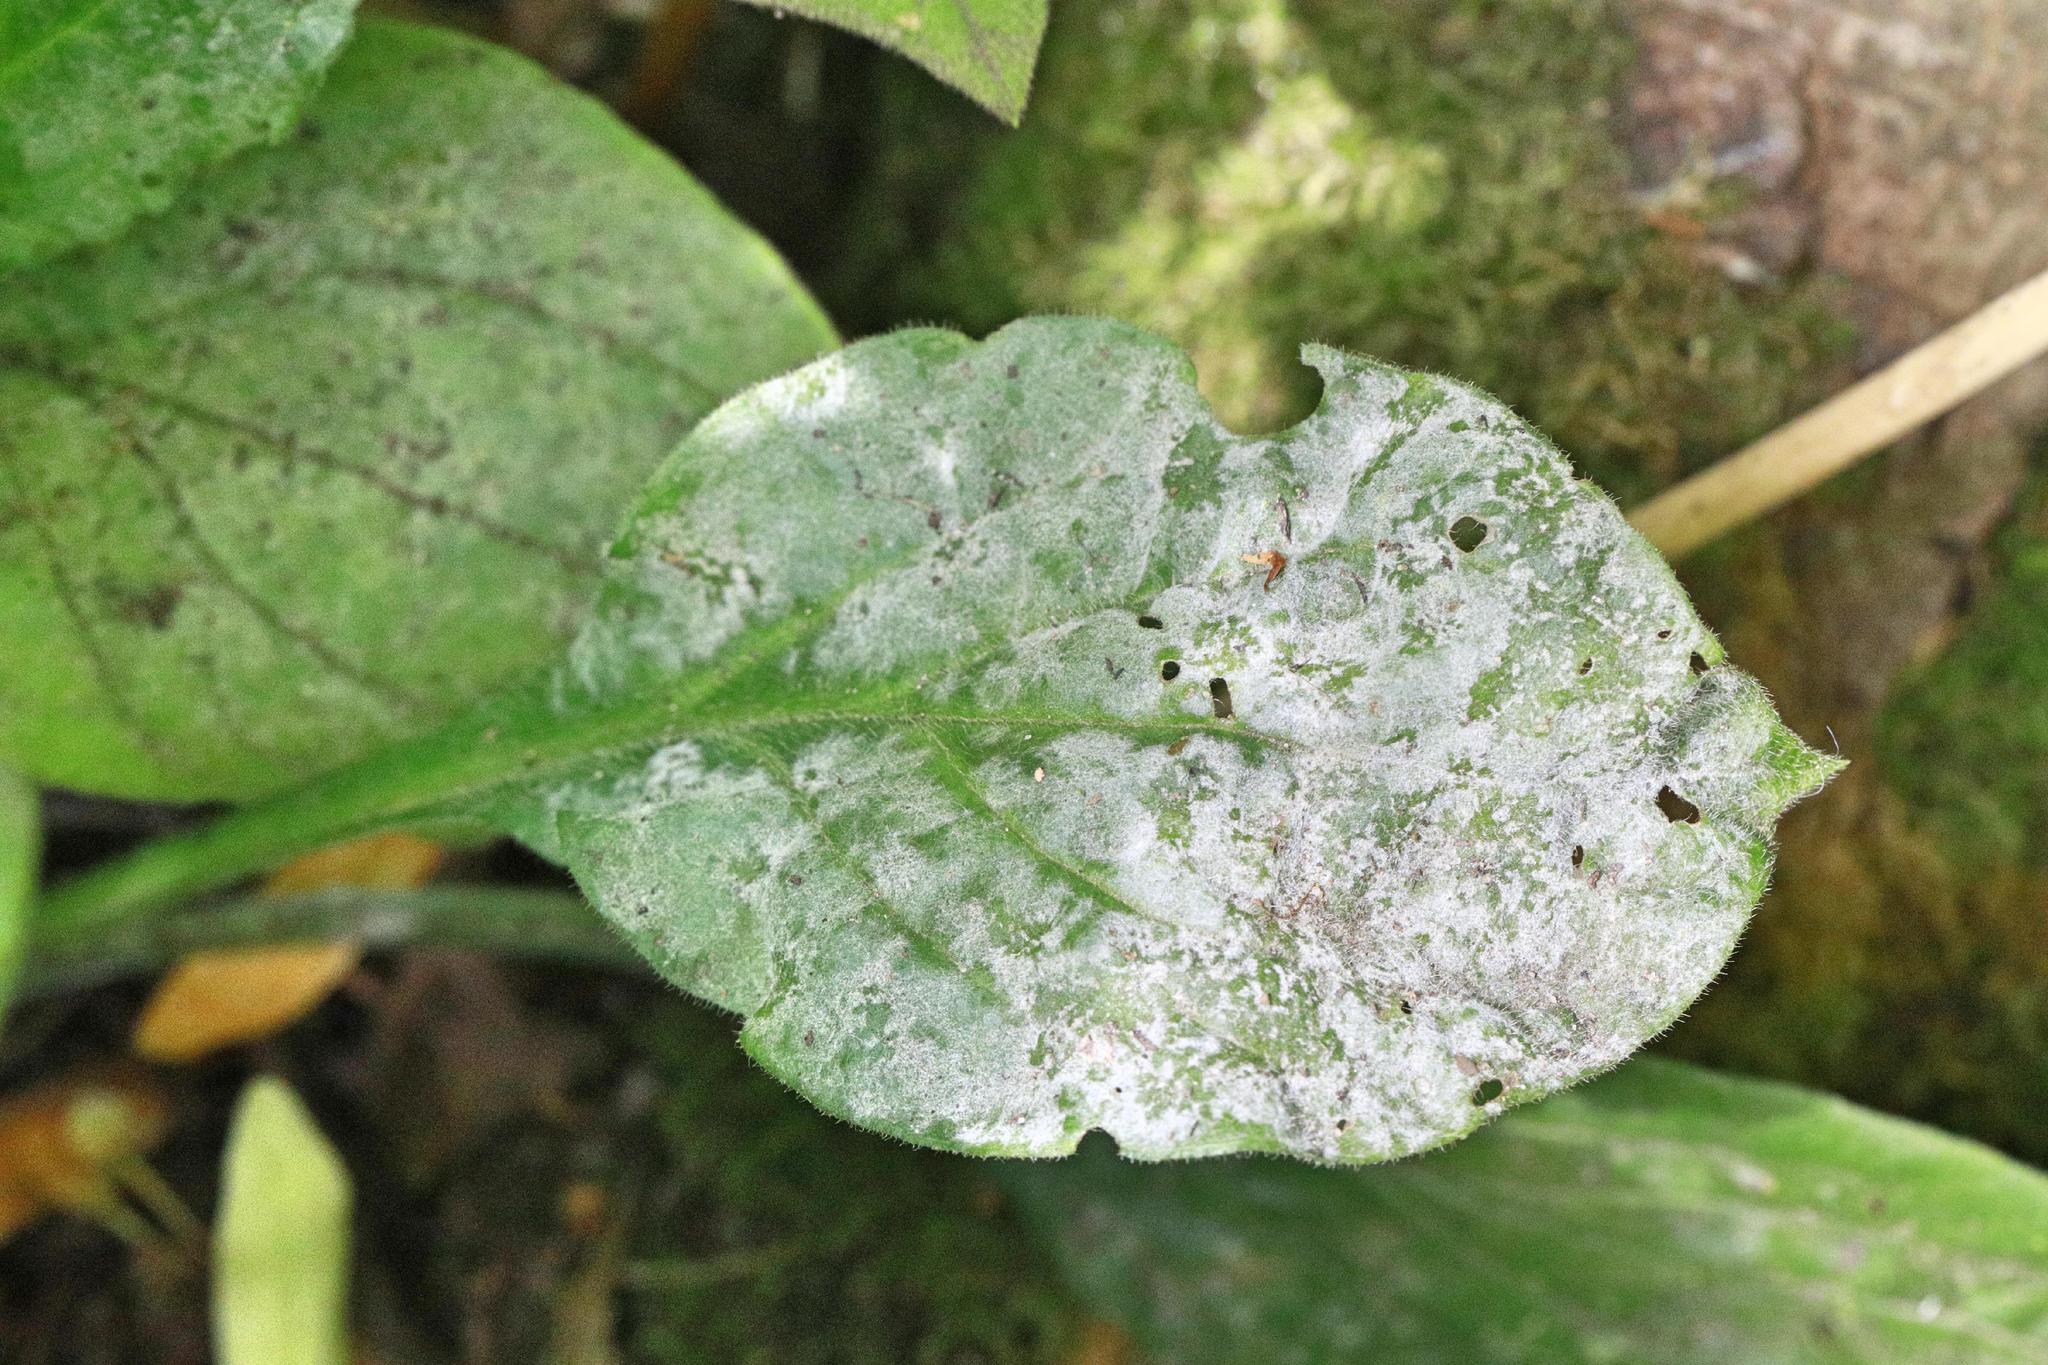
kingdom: Fungi
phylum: Ascomycota
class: Leotiomycetes
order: Helotiales
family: Erysiphaceae
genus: Erysiphe
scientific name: Erysiphe buhrii
